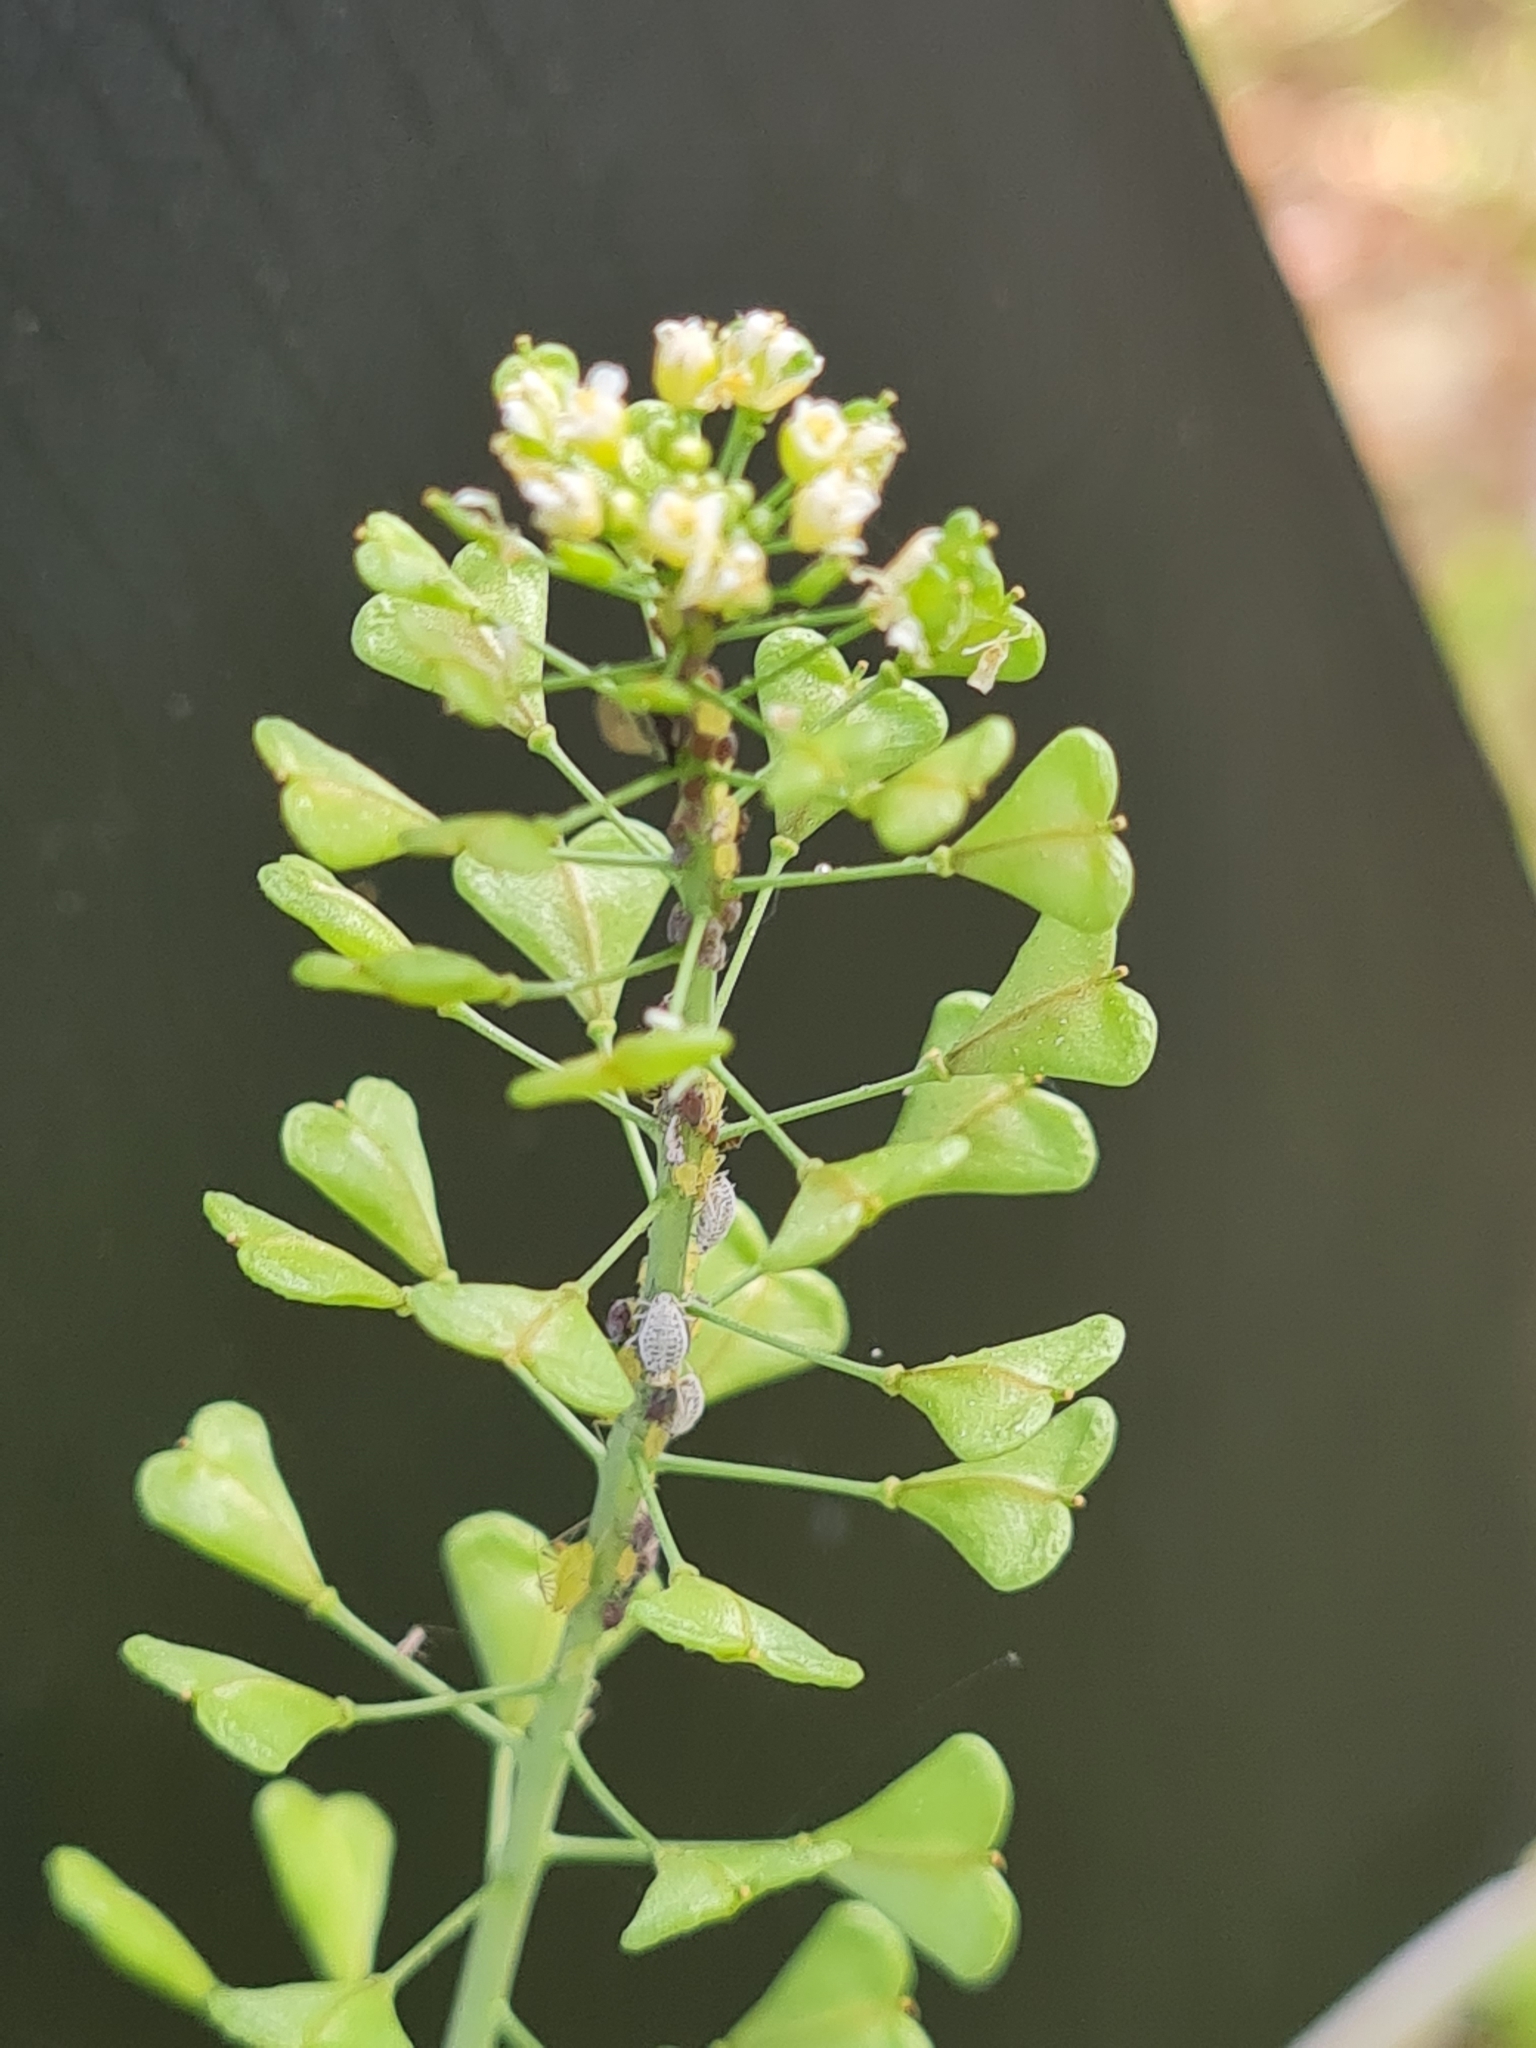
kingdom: Plantae
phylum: Tracheophyta
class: Magnoliopsida
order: Brassicales
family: Brassicaceae
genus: Capsella
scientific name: Capsella bursa-pastoris
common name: Shepherd's purse
